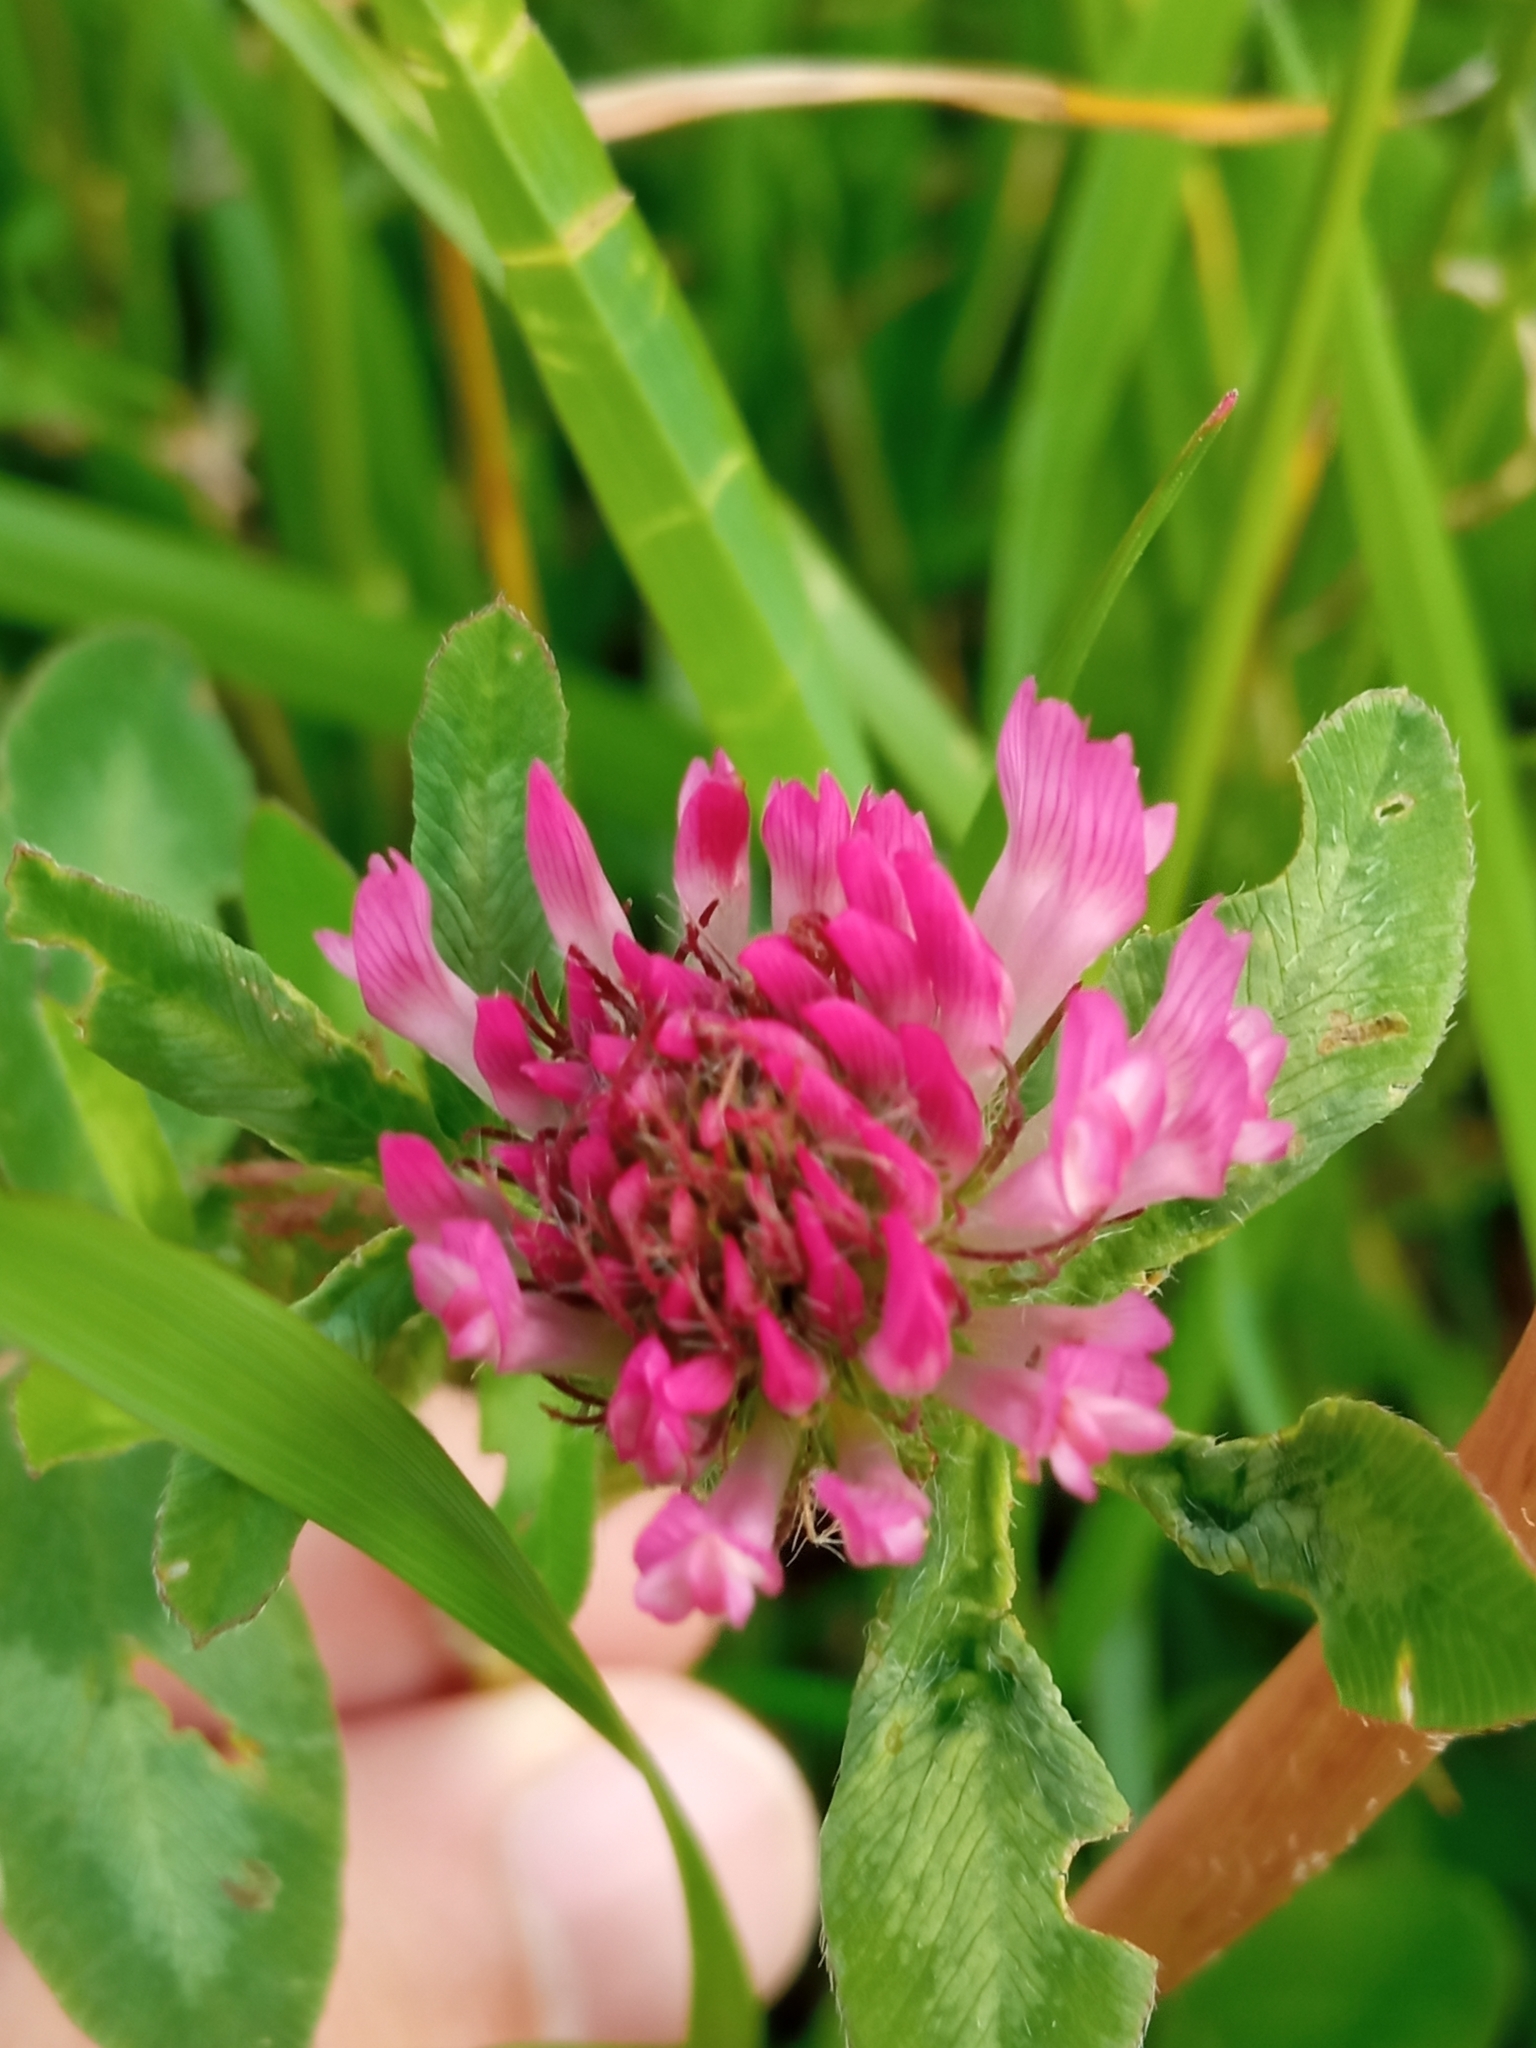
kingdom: Plantae
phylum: Tracheophyta
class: Magnoliopsida
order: Fabales
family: Fabaceae
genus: Trifolium
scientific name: Trifolium pratense
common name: Red clover
